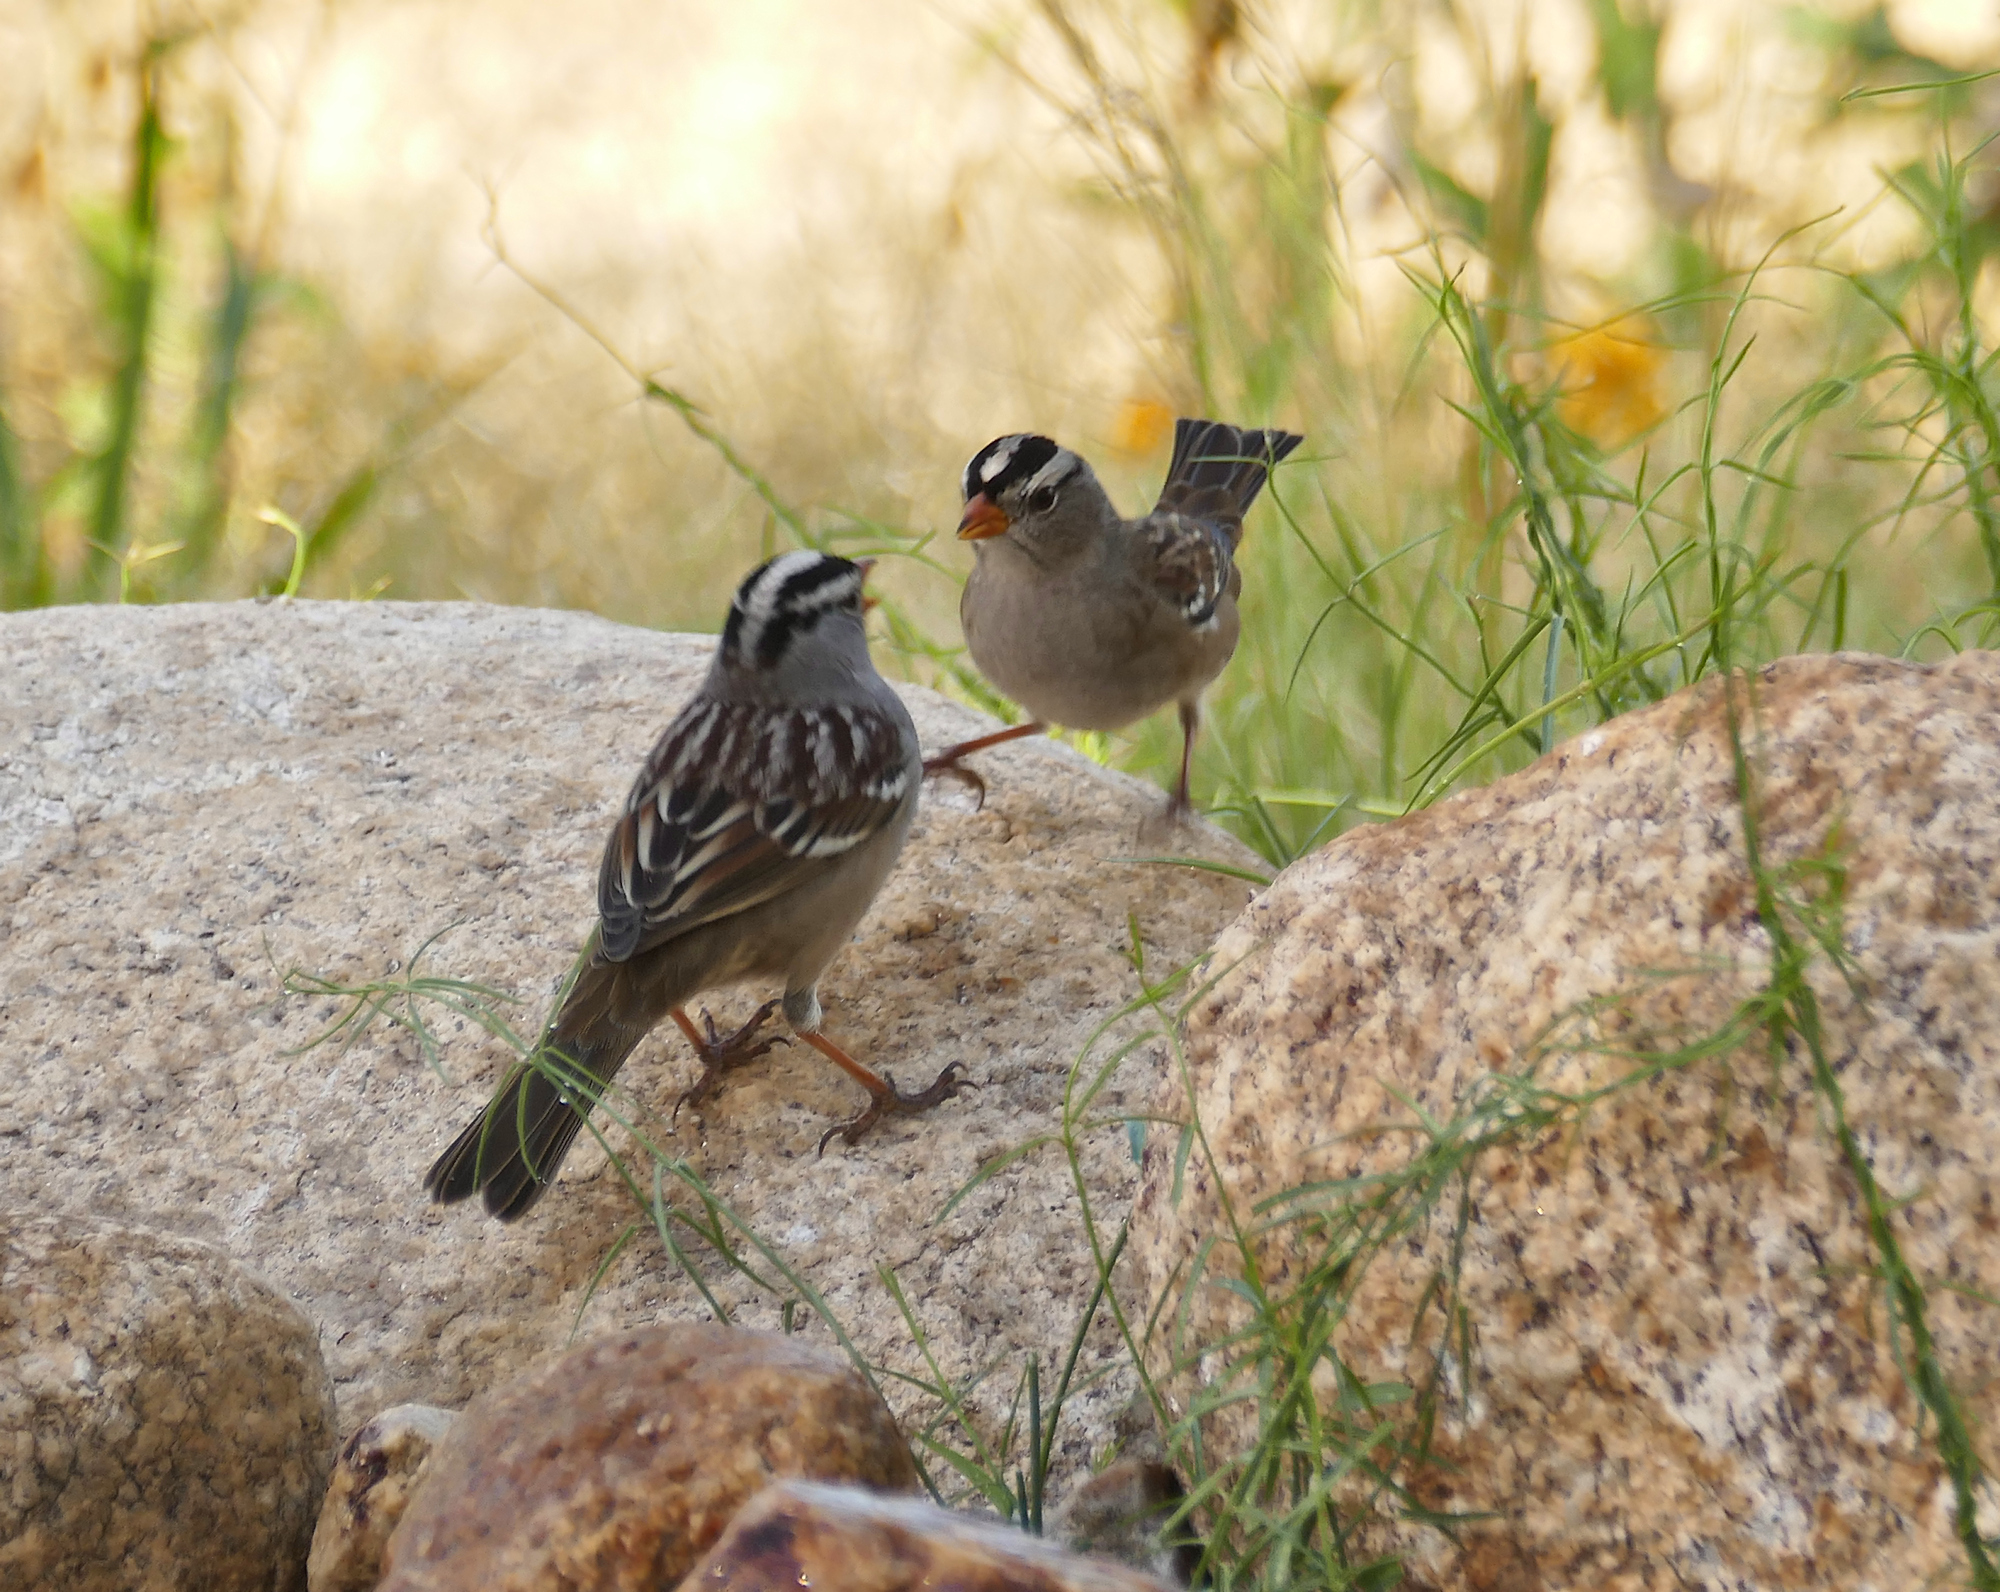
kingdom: Animalia
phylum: Chordata
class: Aves
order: Passeriformes
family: Passerellidae
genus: Zonotrichia
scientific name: Zonotrichia leucophrys
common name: White-crowned sparrow
